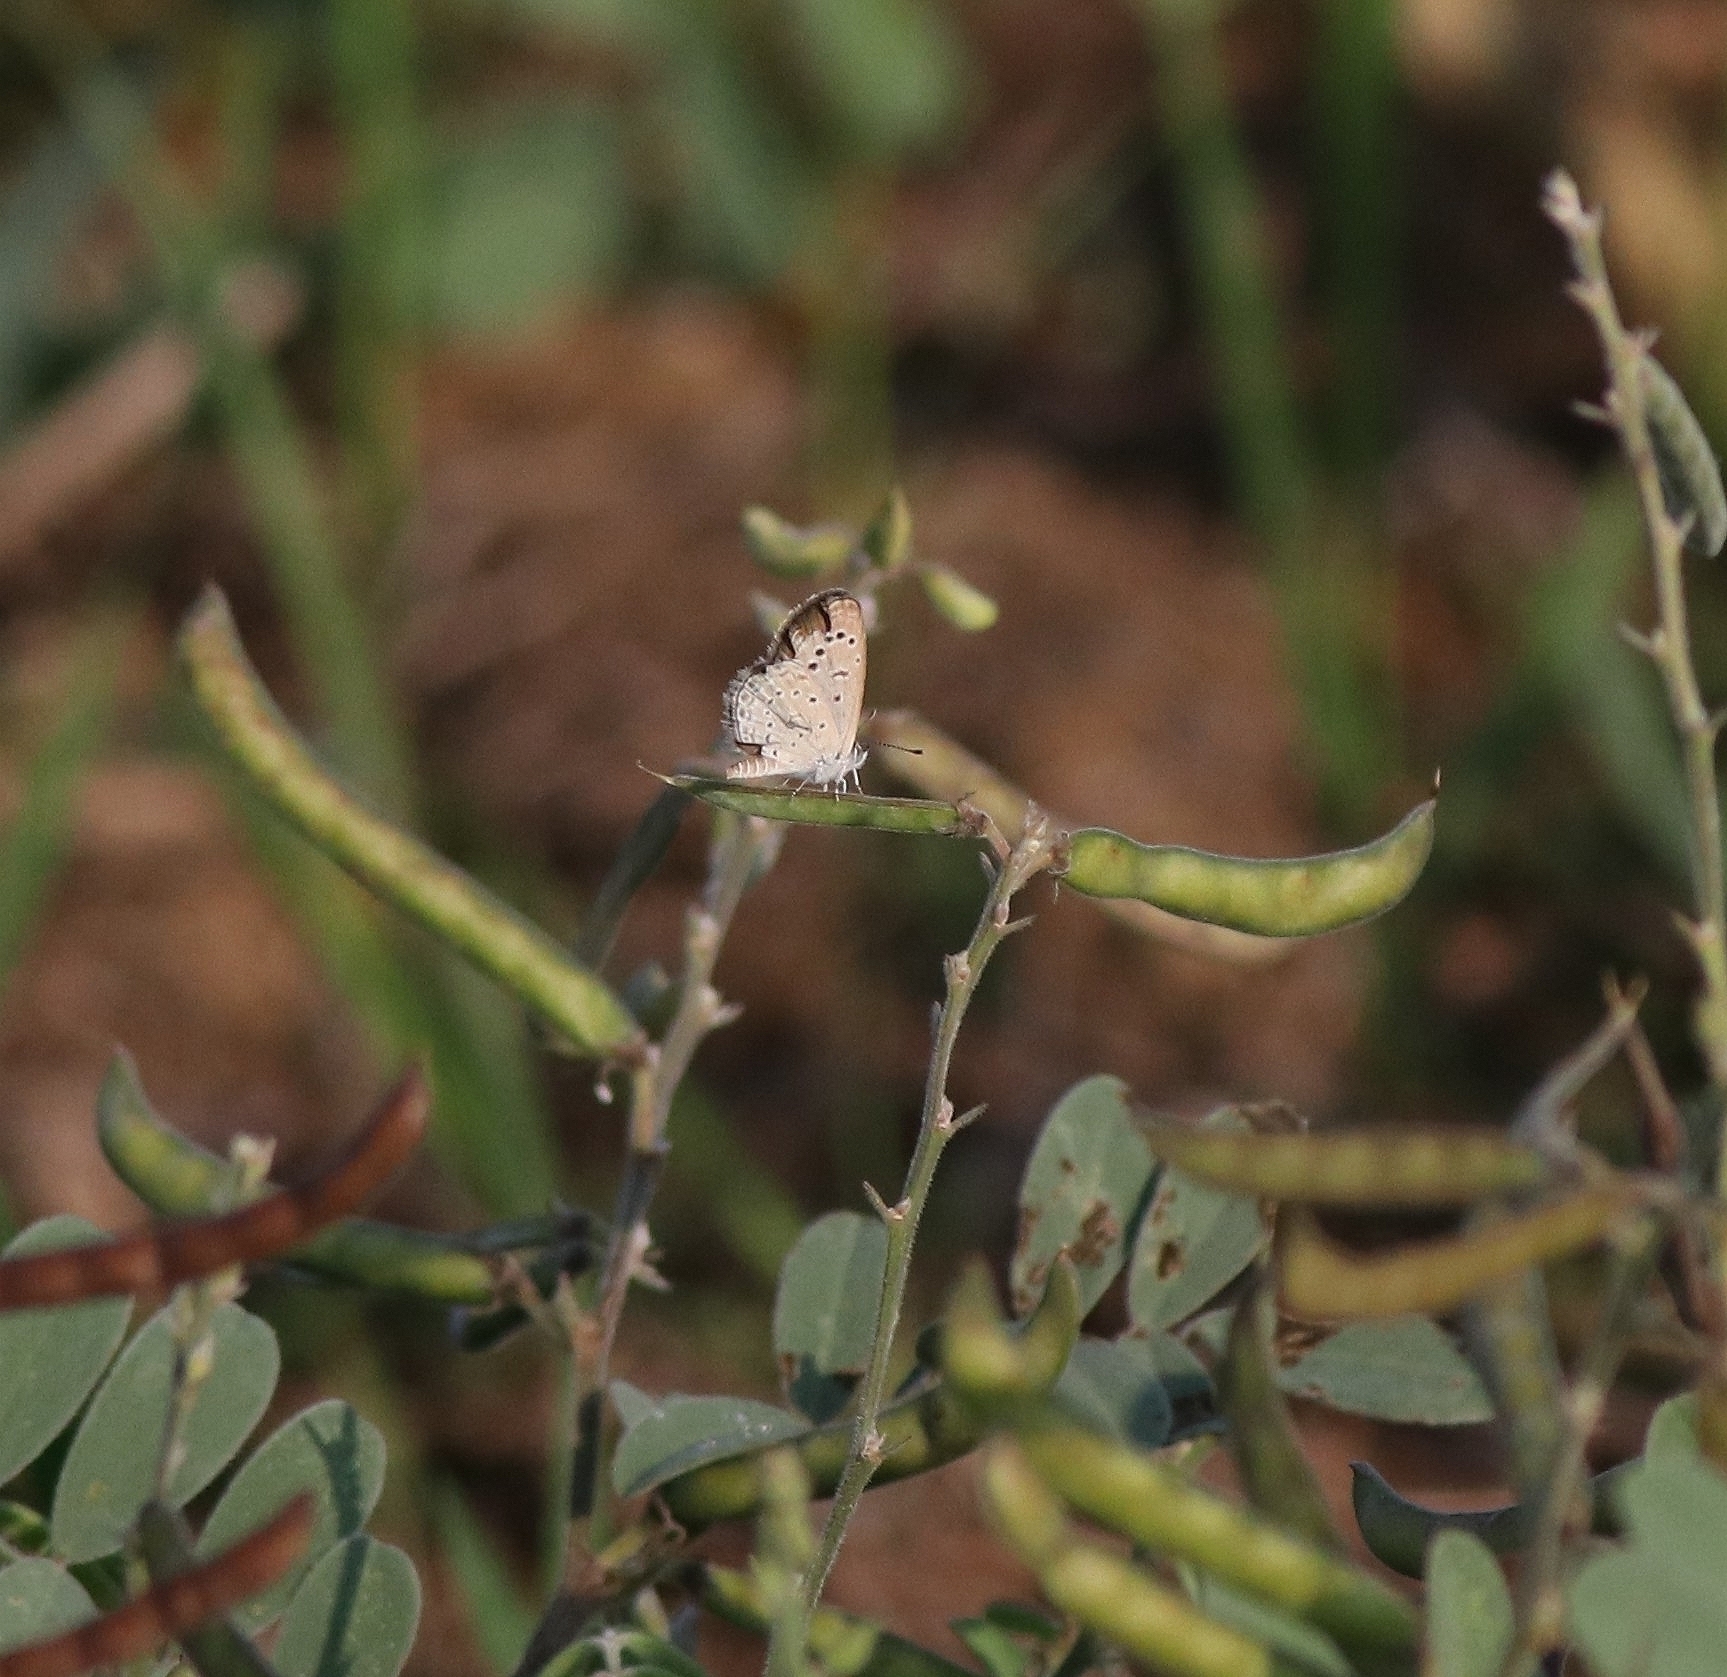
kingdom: Animalia
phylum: Arthropoda
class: Insecta
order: Lepidoptera
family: Lycaenidae
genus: Zizeeria
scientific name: Zizeeria karsandra
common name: Dark grass blue
